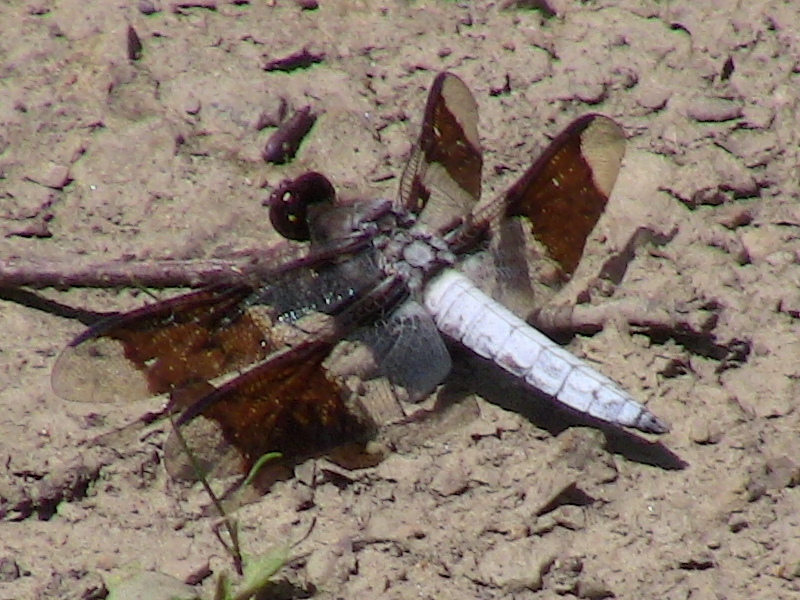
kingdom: Animalia
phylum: Arthropoda
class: Insecta
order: Odonata
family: Libellulidae
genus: Plathemis
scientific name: Plathemis lydia
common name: Common whitetail
